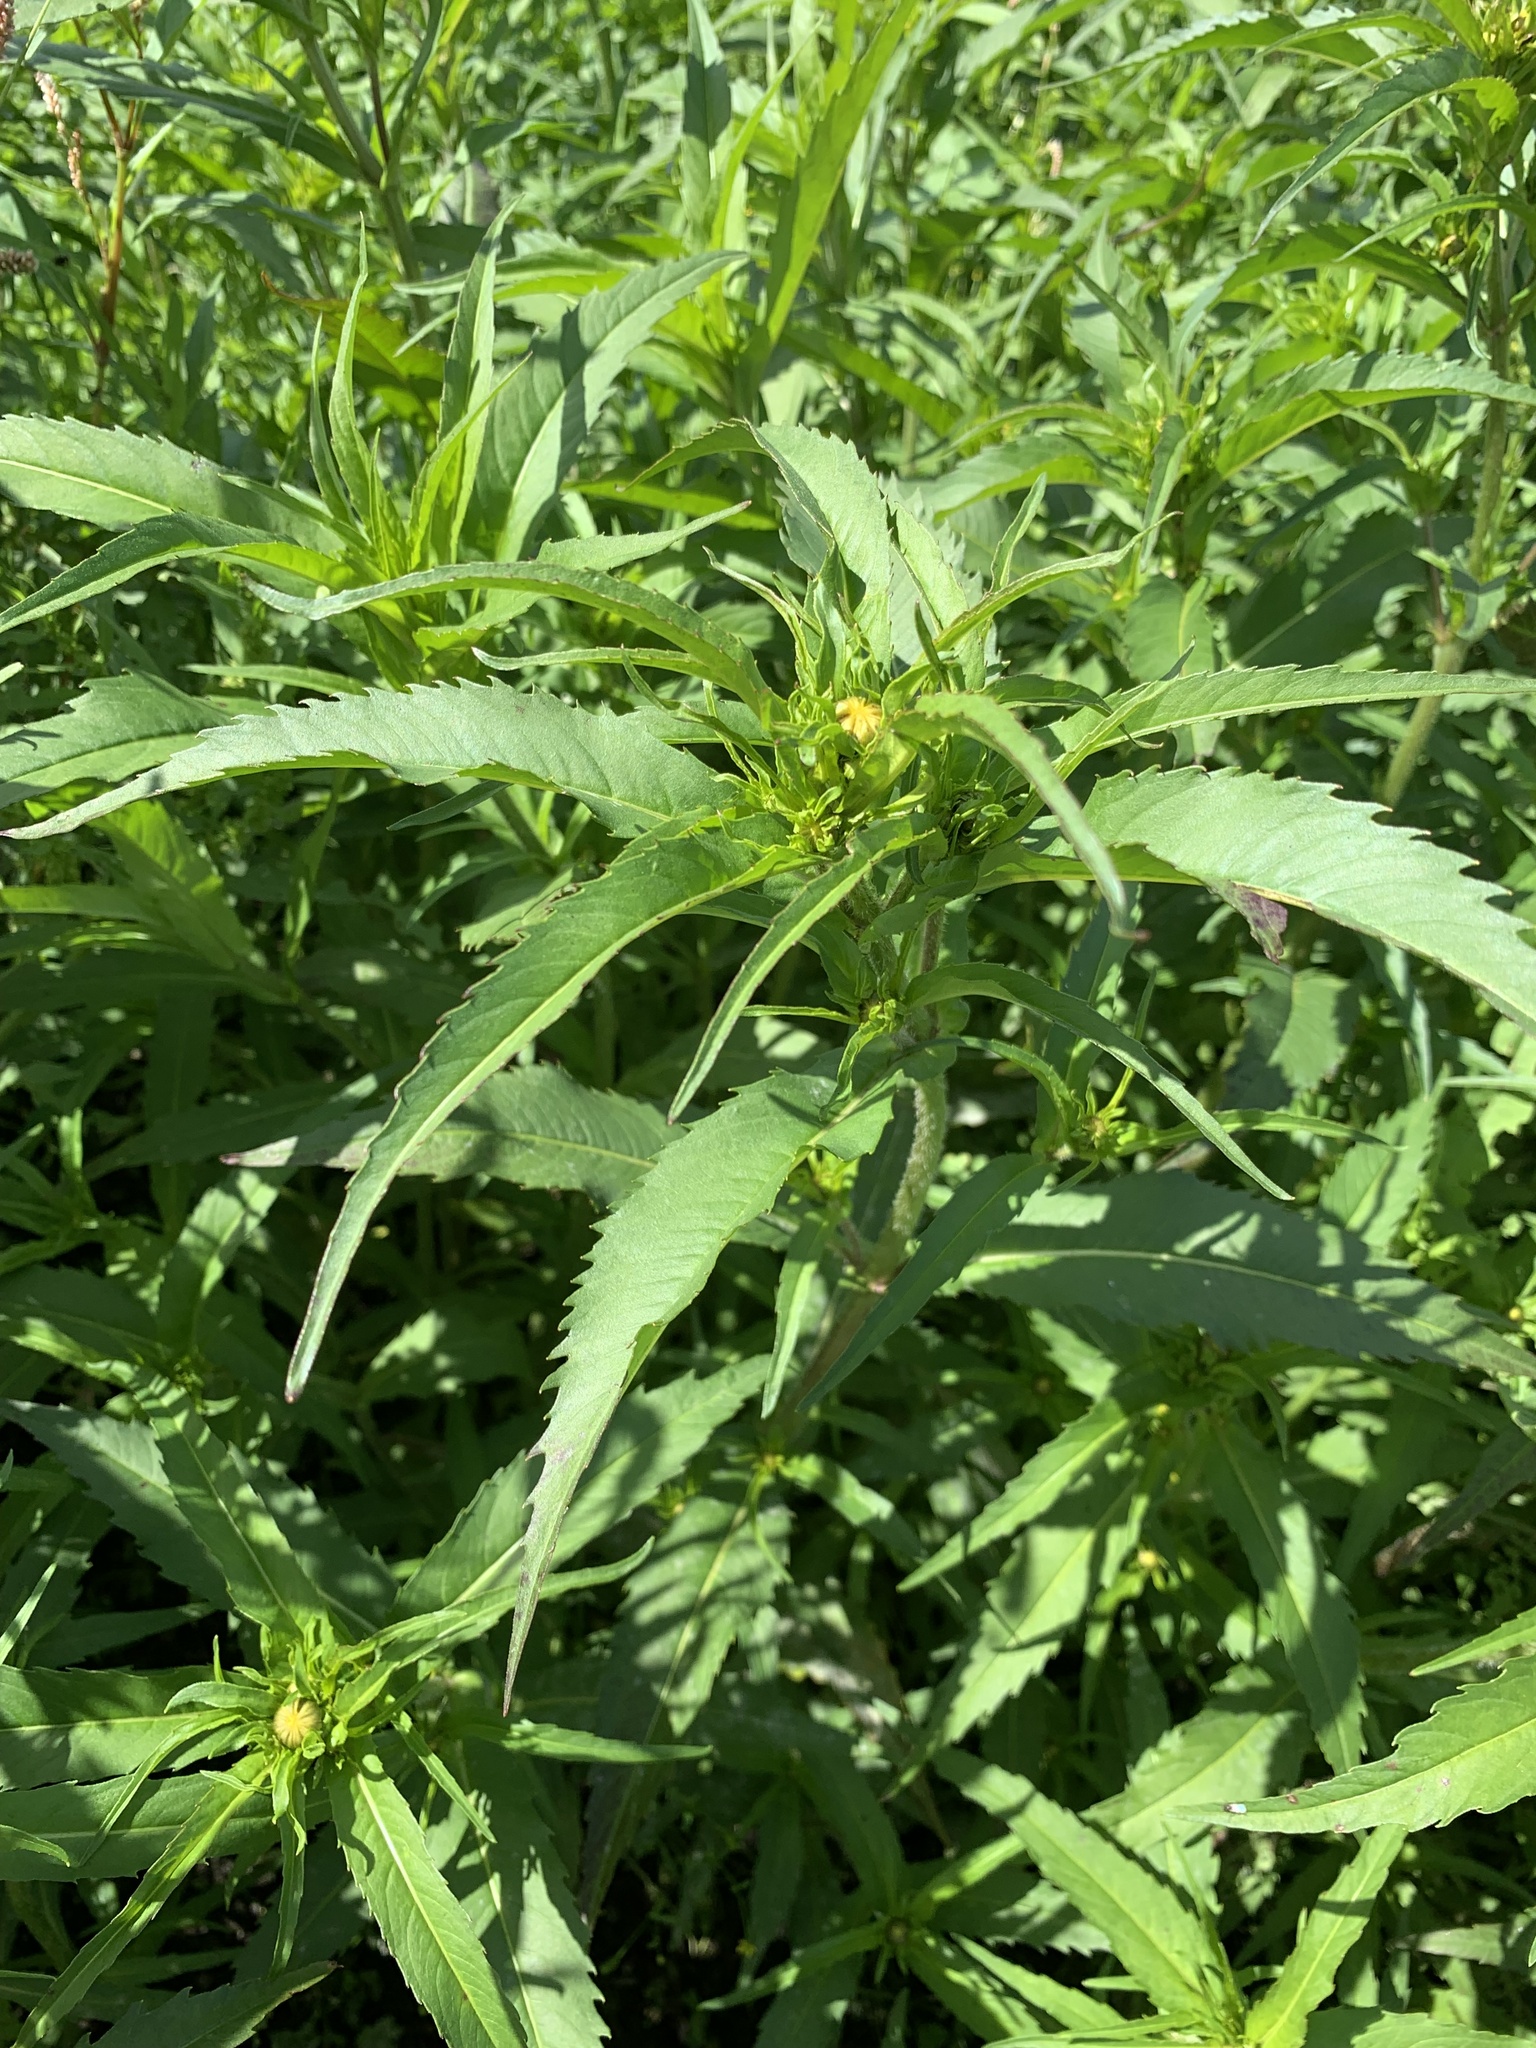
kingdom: Plantae
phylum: Tracheophyta
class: Magnoliopsida
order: Asterales
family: Asteraceae
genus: Bidens
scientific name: Bidens cernua
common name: Nodding bur-marigold
